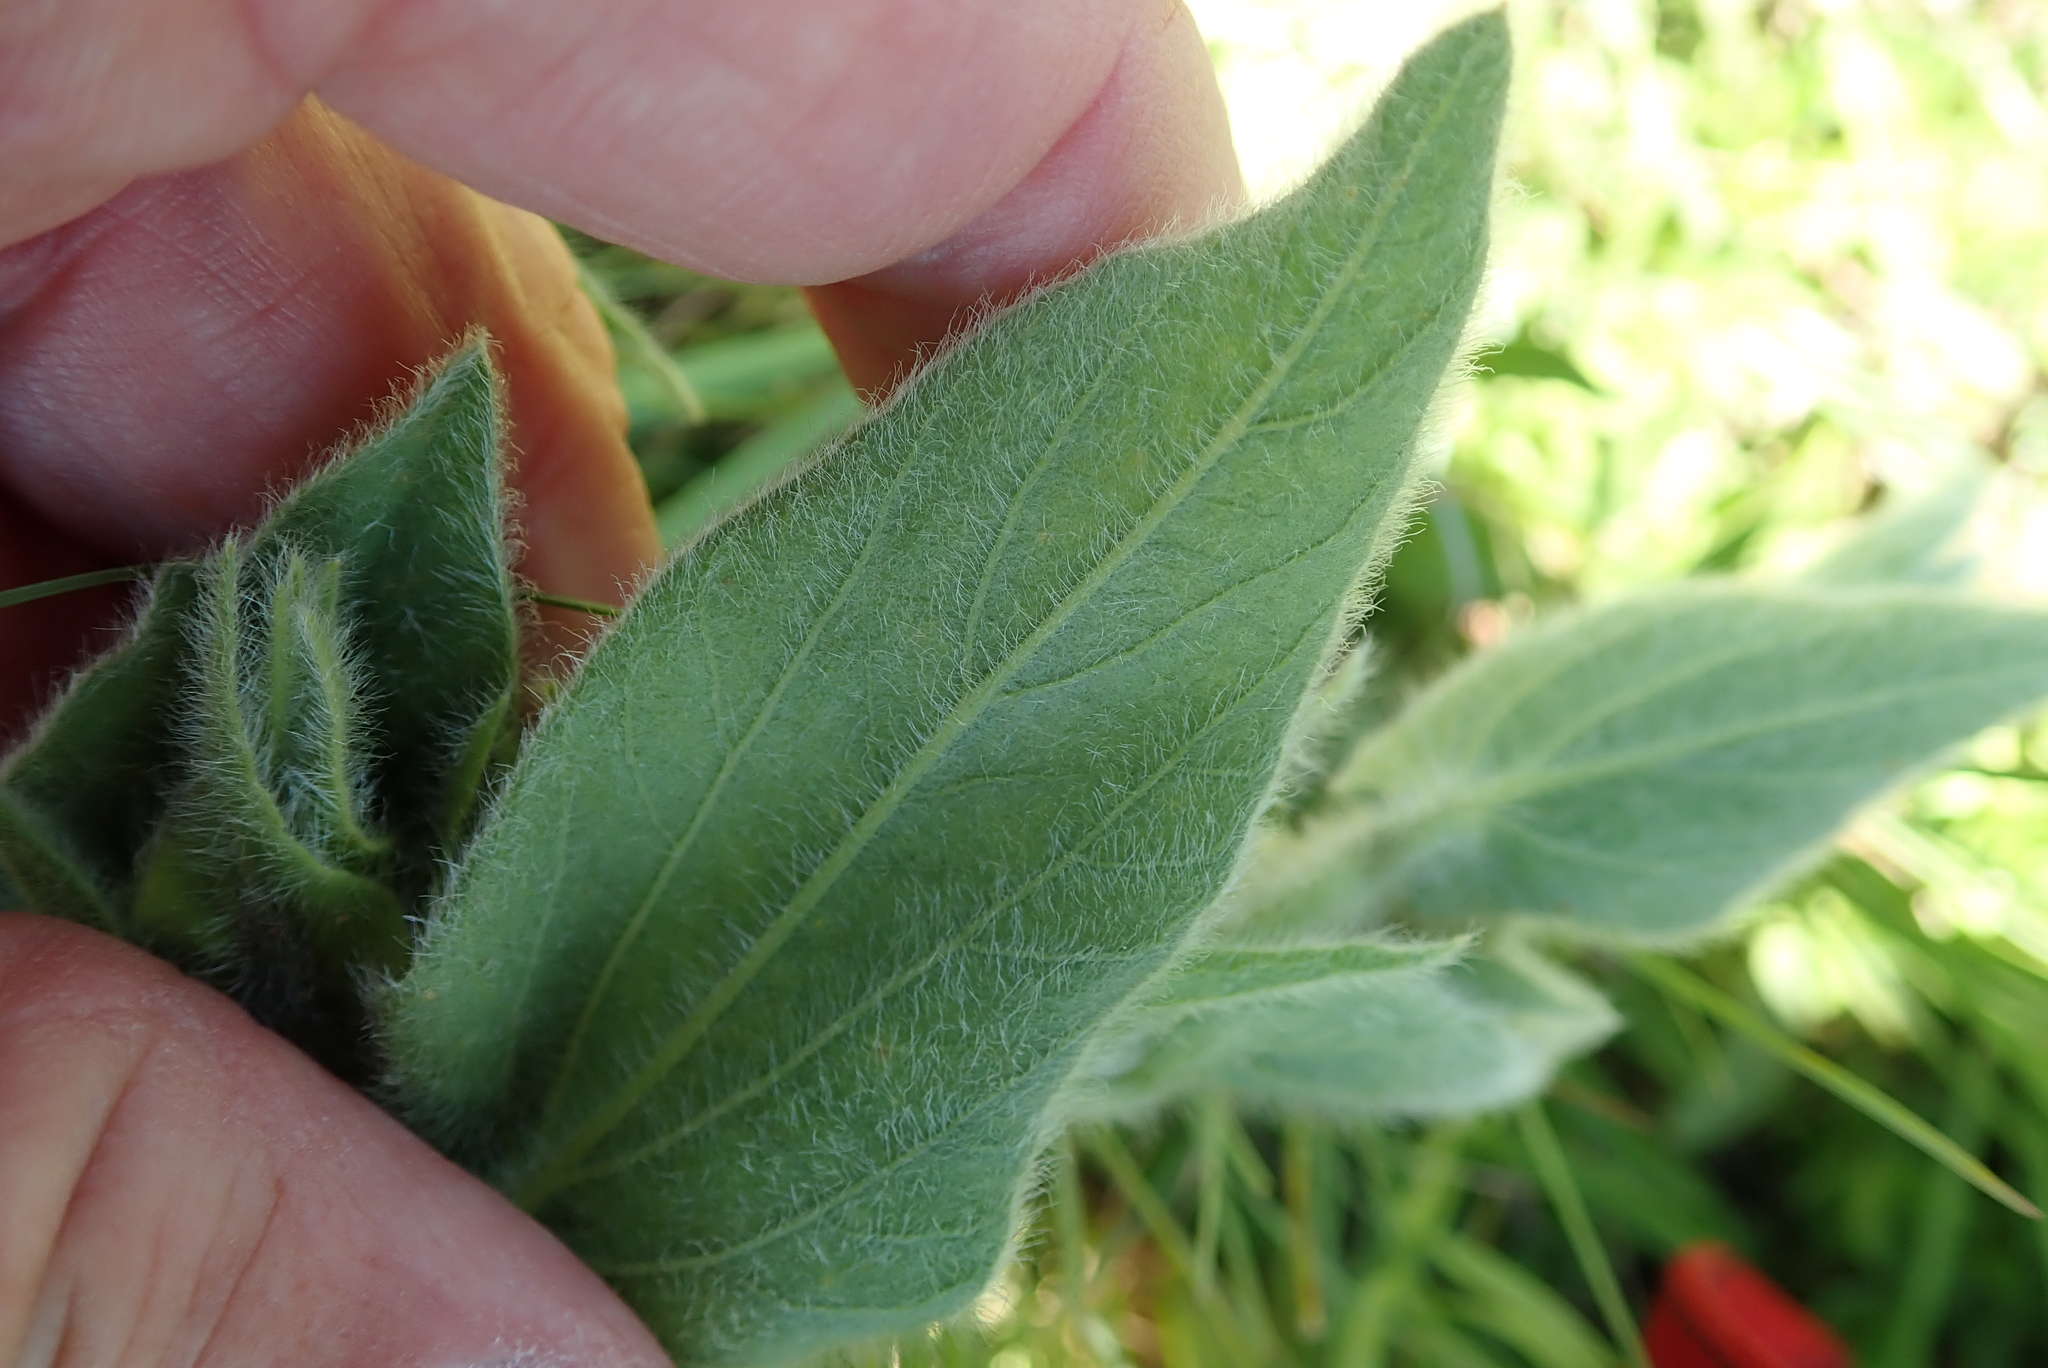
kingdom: Plantae
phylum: Tracheophyta
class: Magnoliopsida
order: Solanales
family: Convolvulaceae
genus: Ipomoea
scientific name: Ipomoea crassipes
